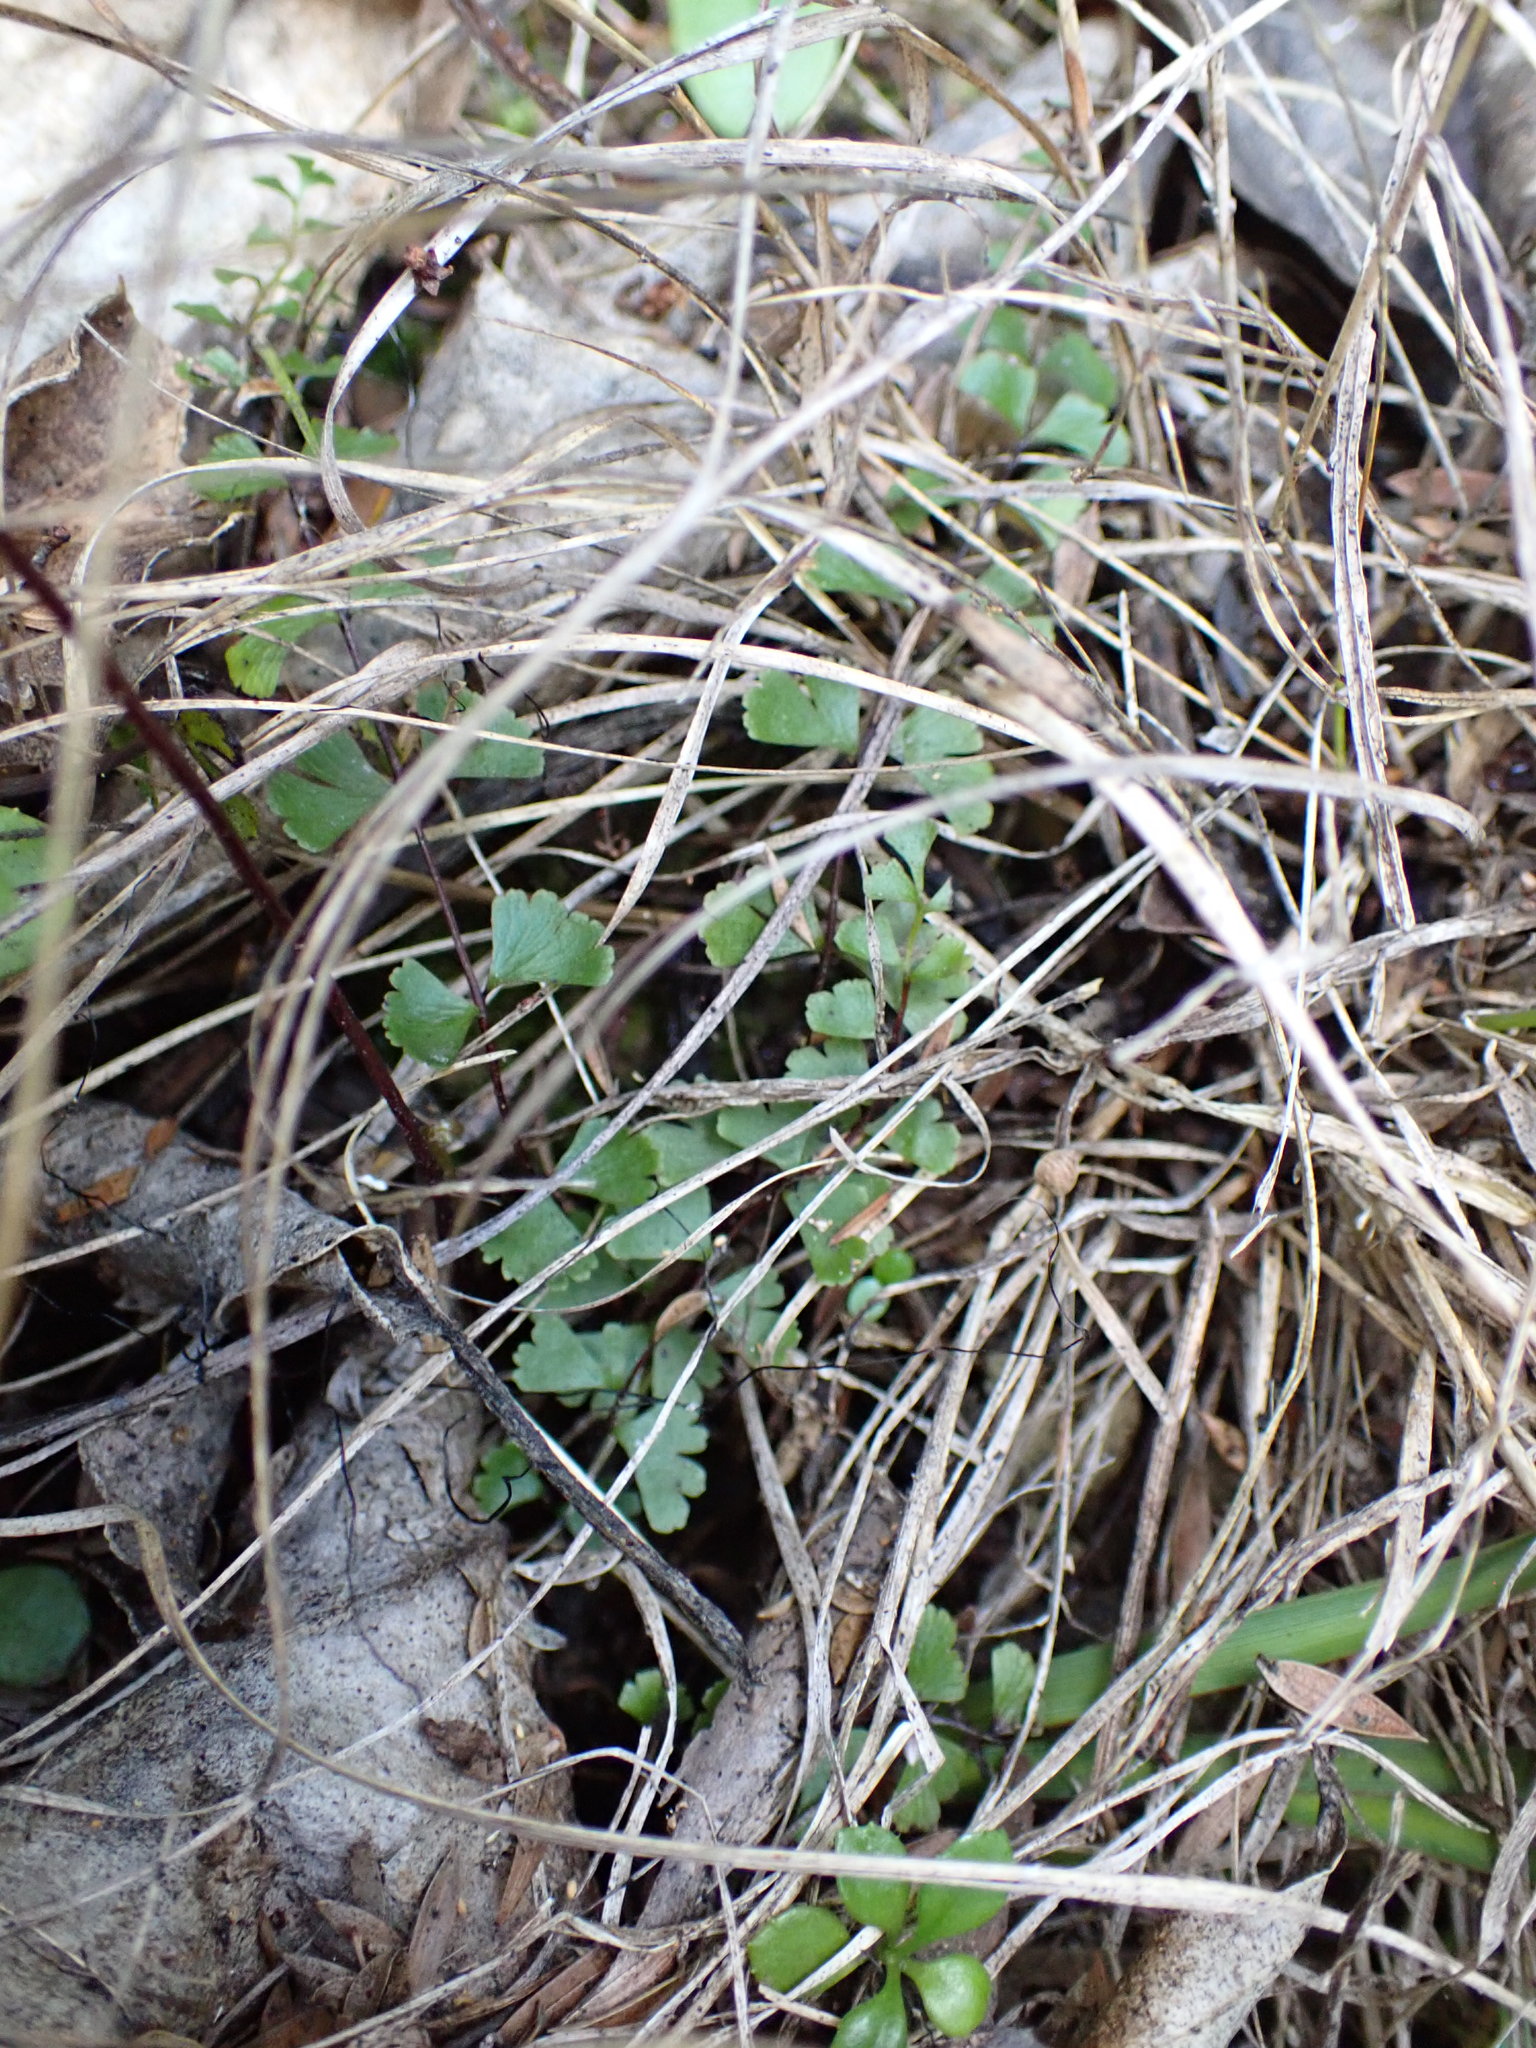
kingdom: Plantae
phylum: Tracheophyta
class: Polypodiopsida
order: Polypodiales
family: Lindsaeaceae
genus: Lindsaea
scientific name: Lindsaea linearis
